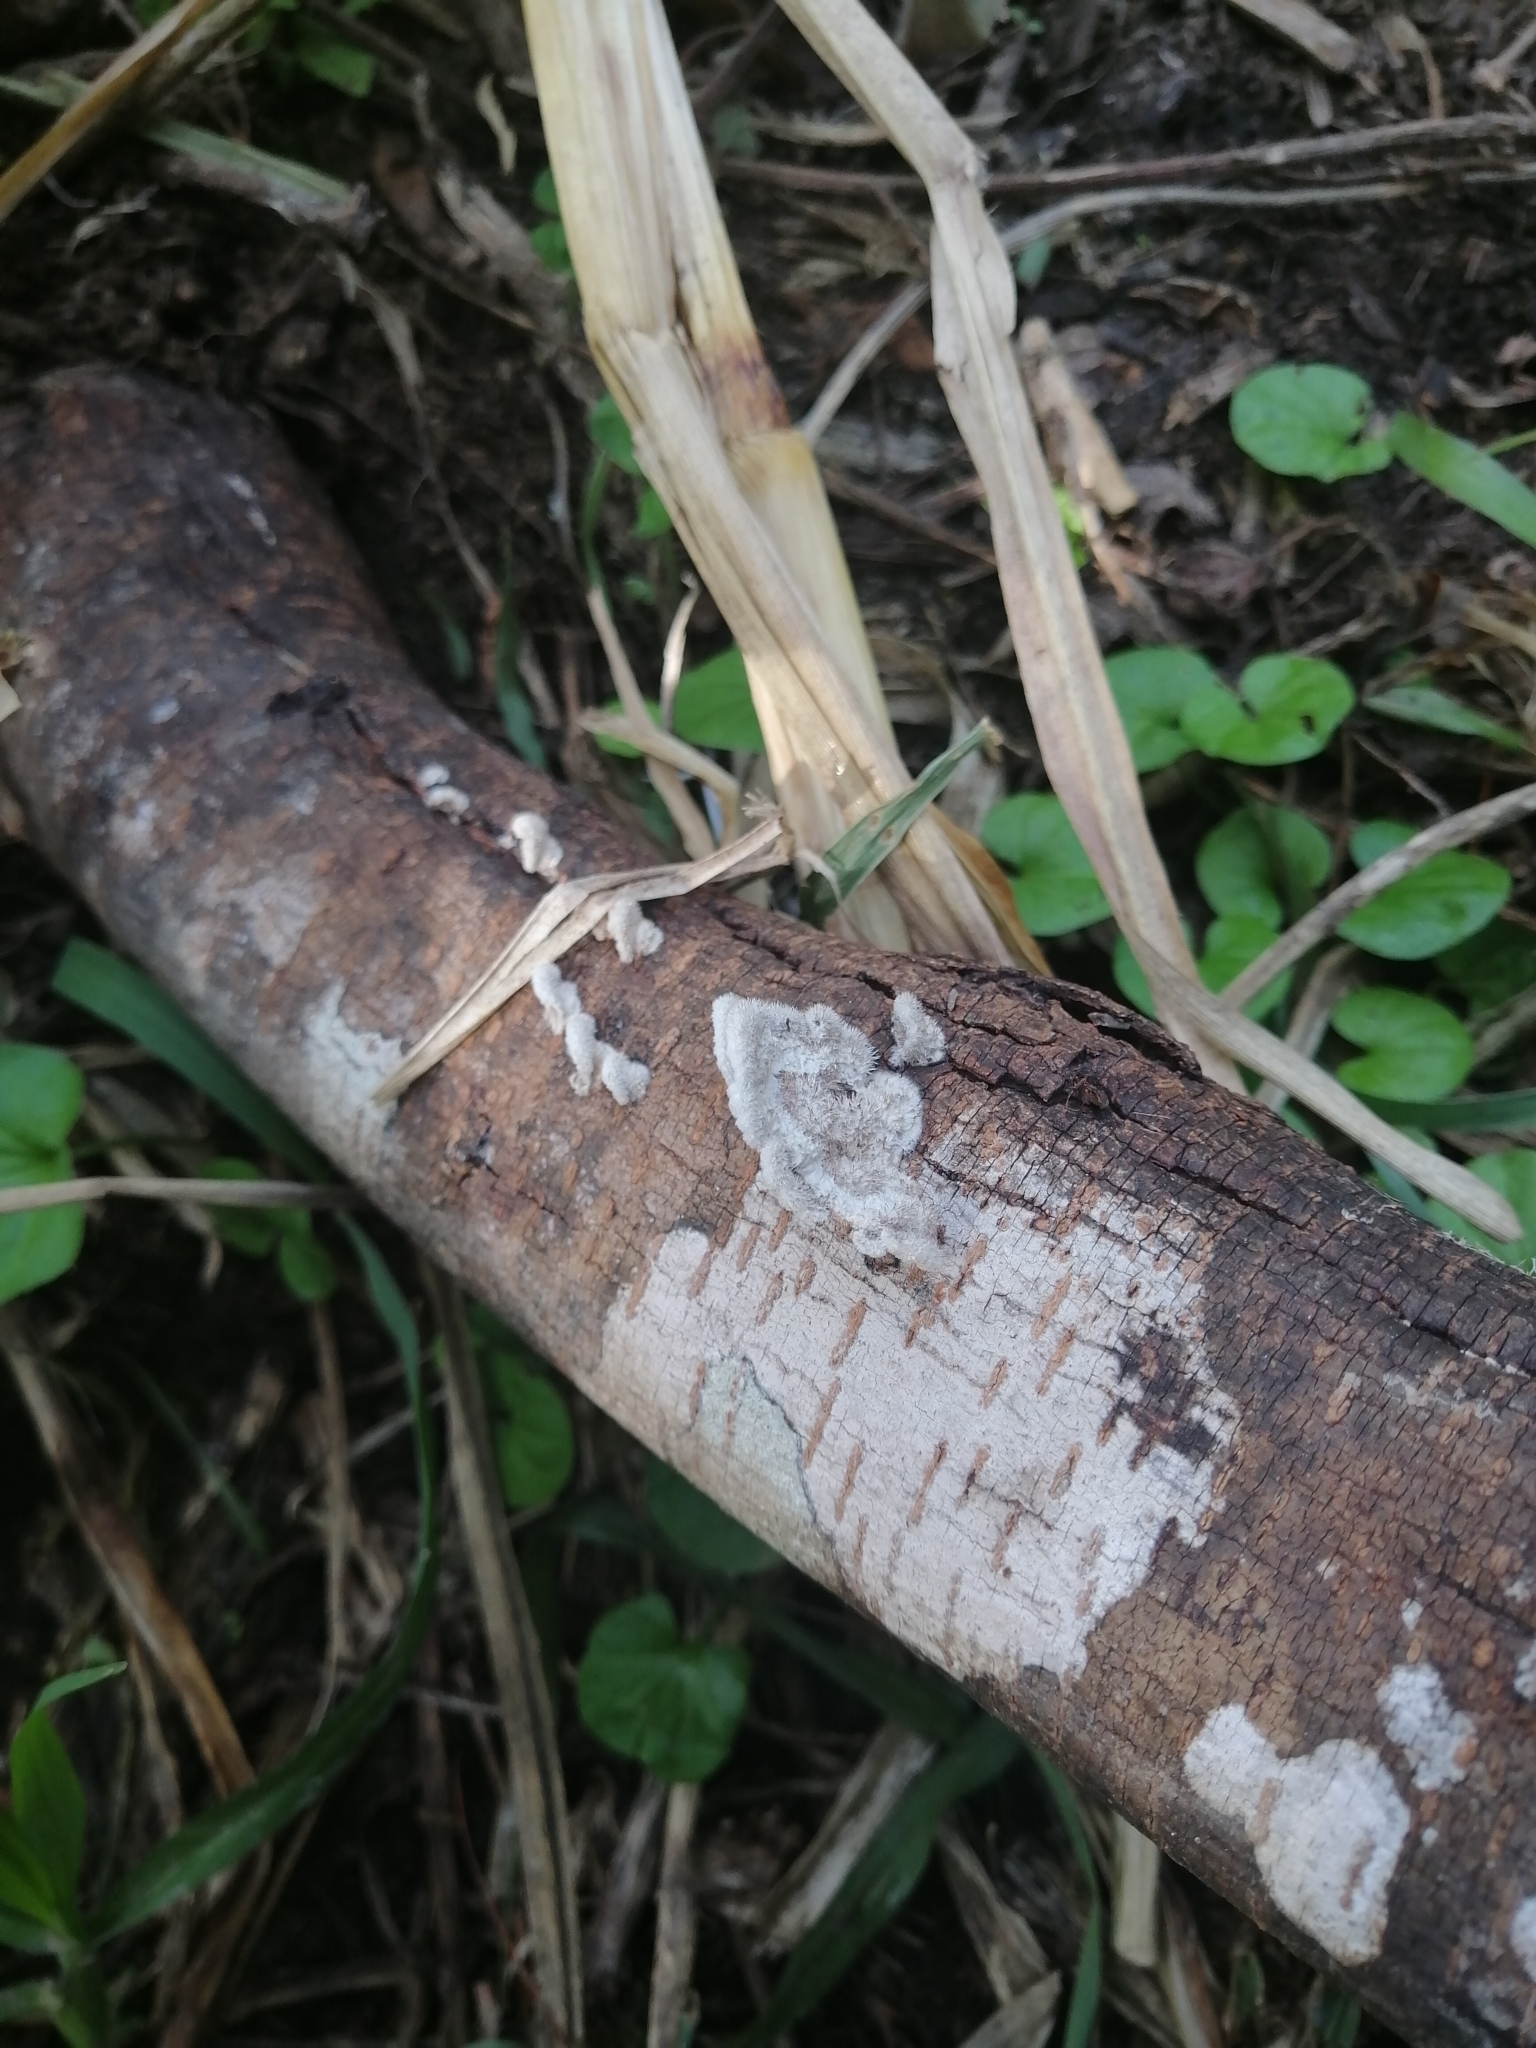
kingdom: Fungi
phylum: Basidiomycota
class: Agaricomycetes
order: Agaricales
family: Schizophyllaceae
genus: Schizophyllum
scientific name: Schizophyllum commune
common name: Common porecrust
